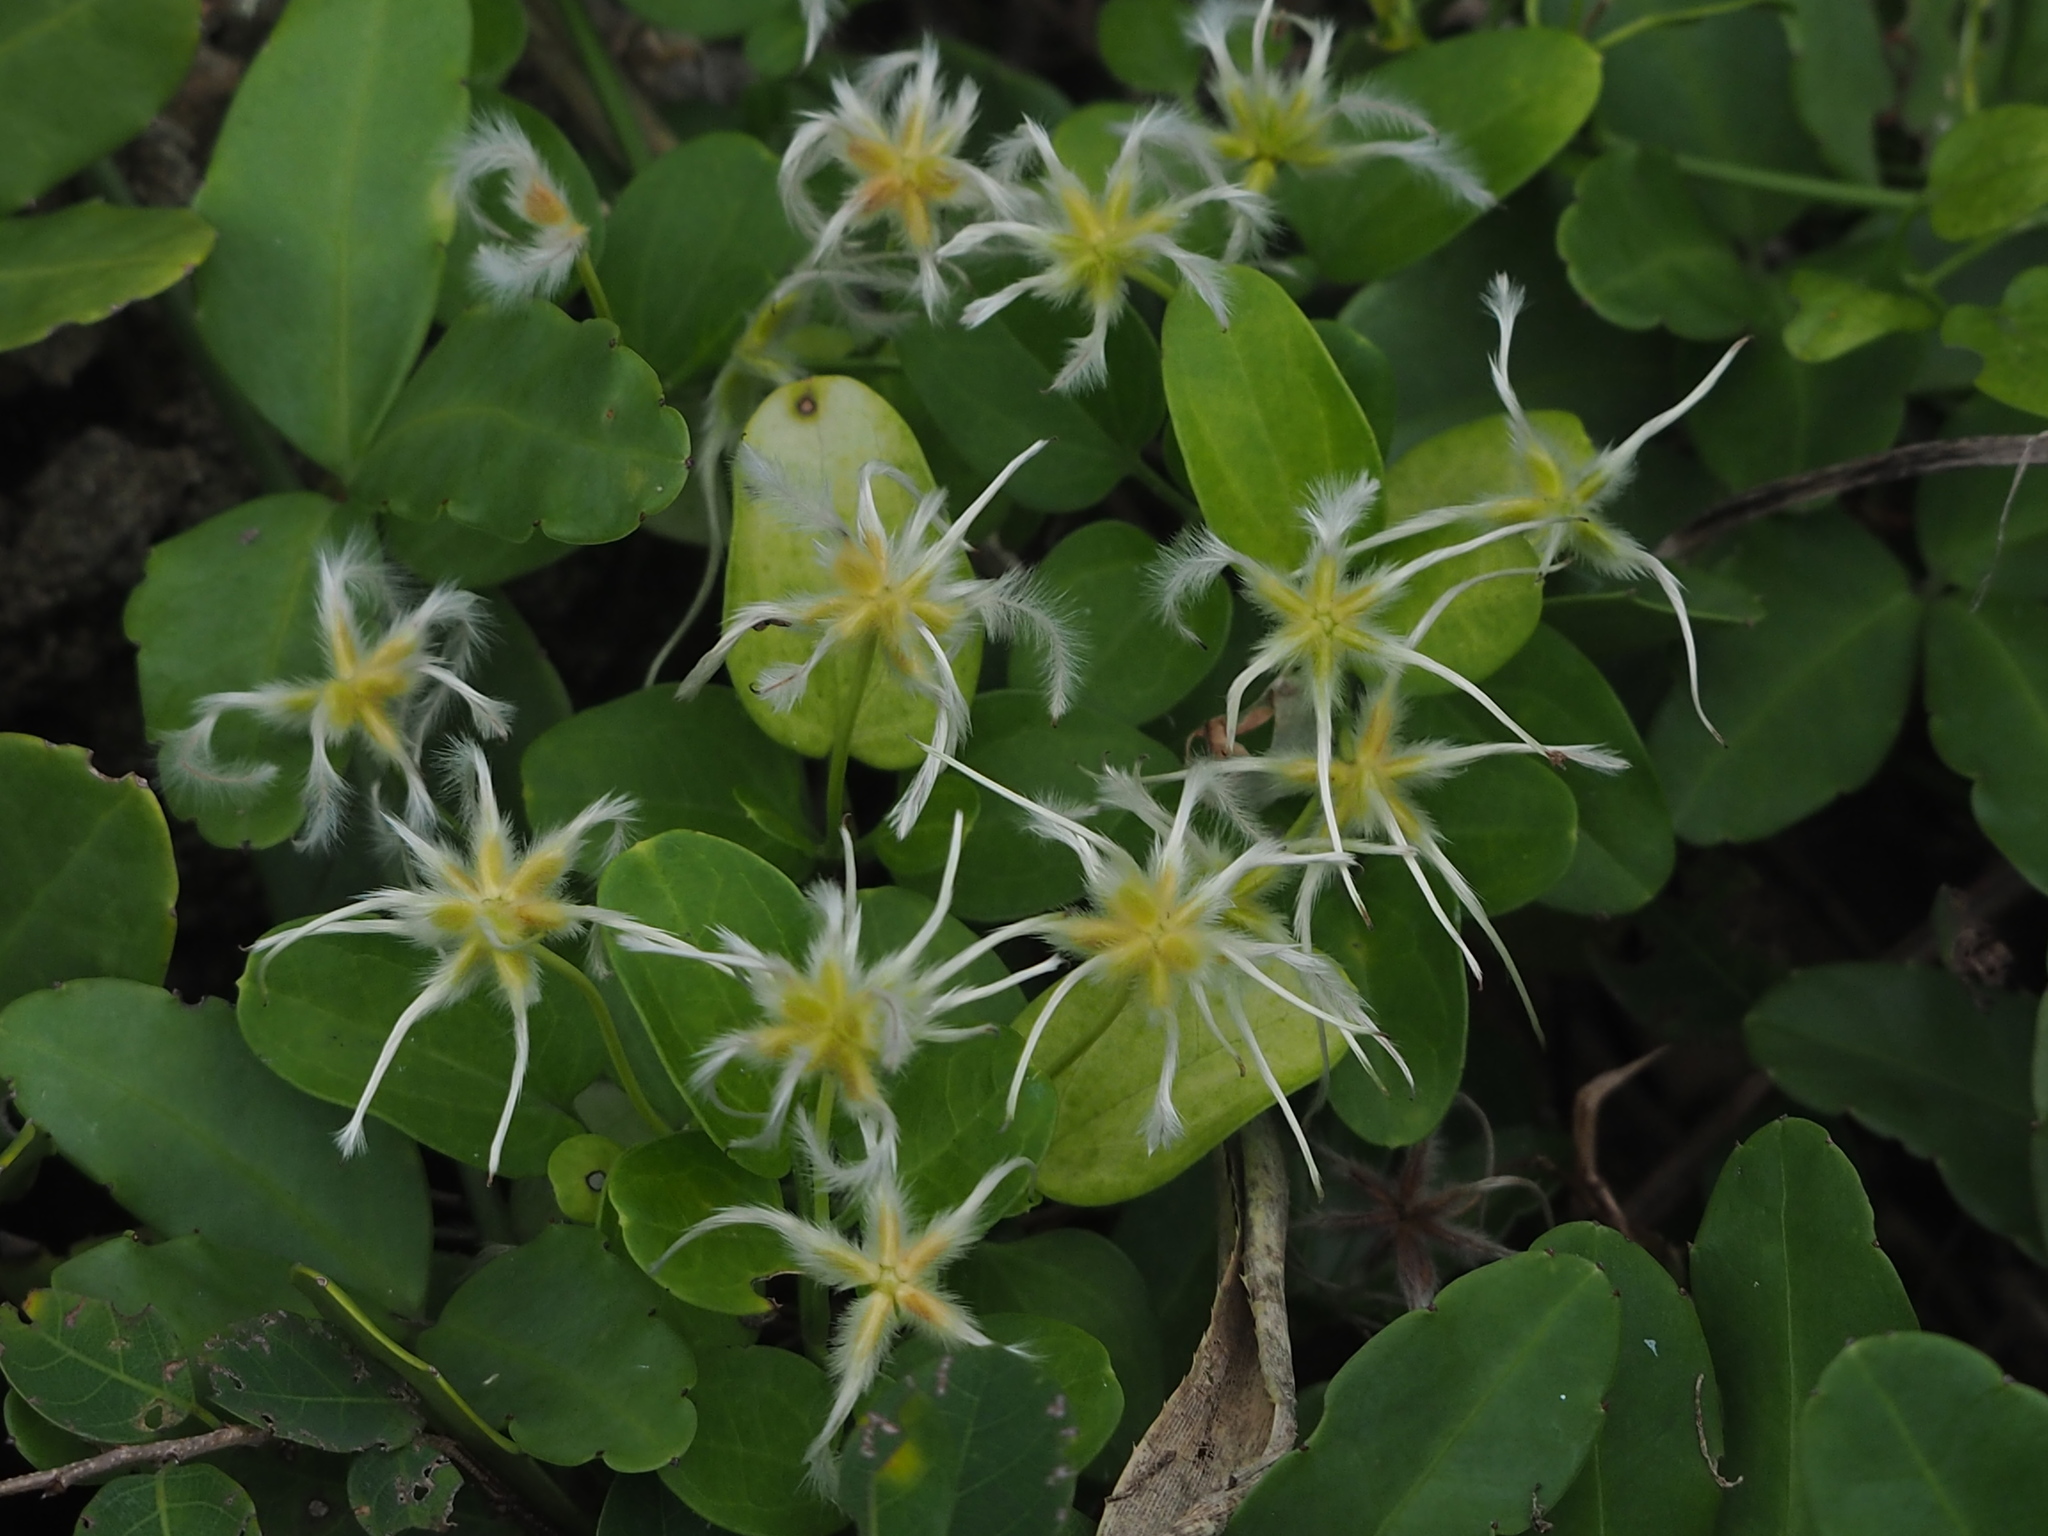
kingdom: Plantae
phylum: Tracheophyta
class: Magnoliopsida
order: Ranunculales
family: Ranunculaceae
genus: Clematis
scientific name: Clematis terniflora
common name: Sweet autumn clematis
